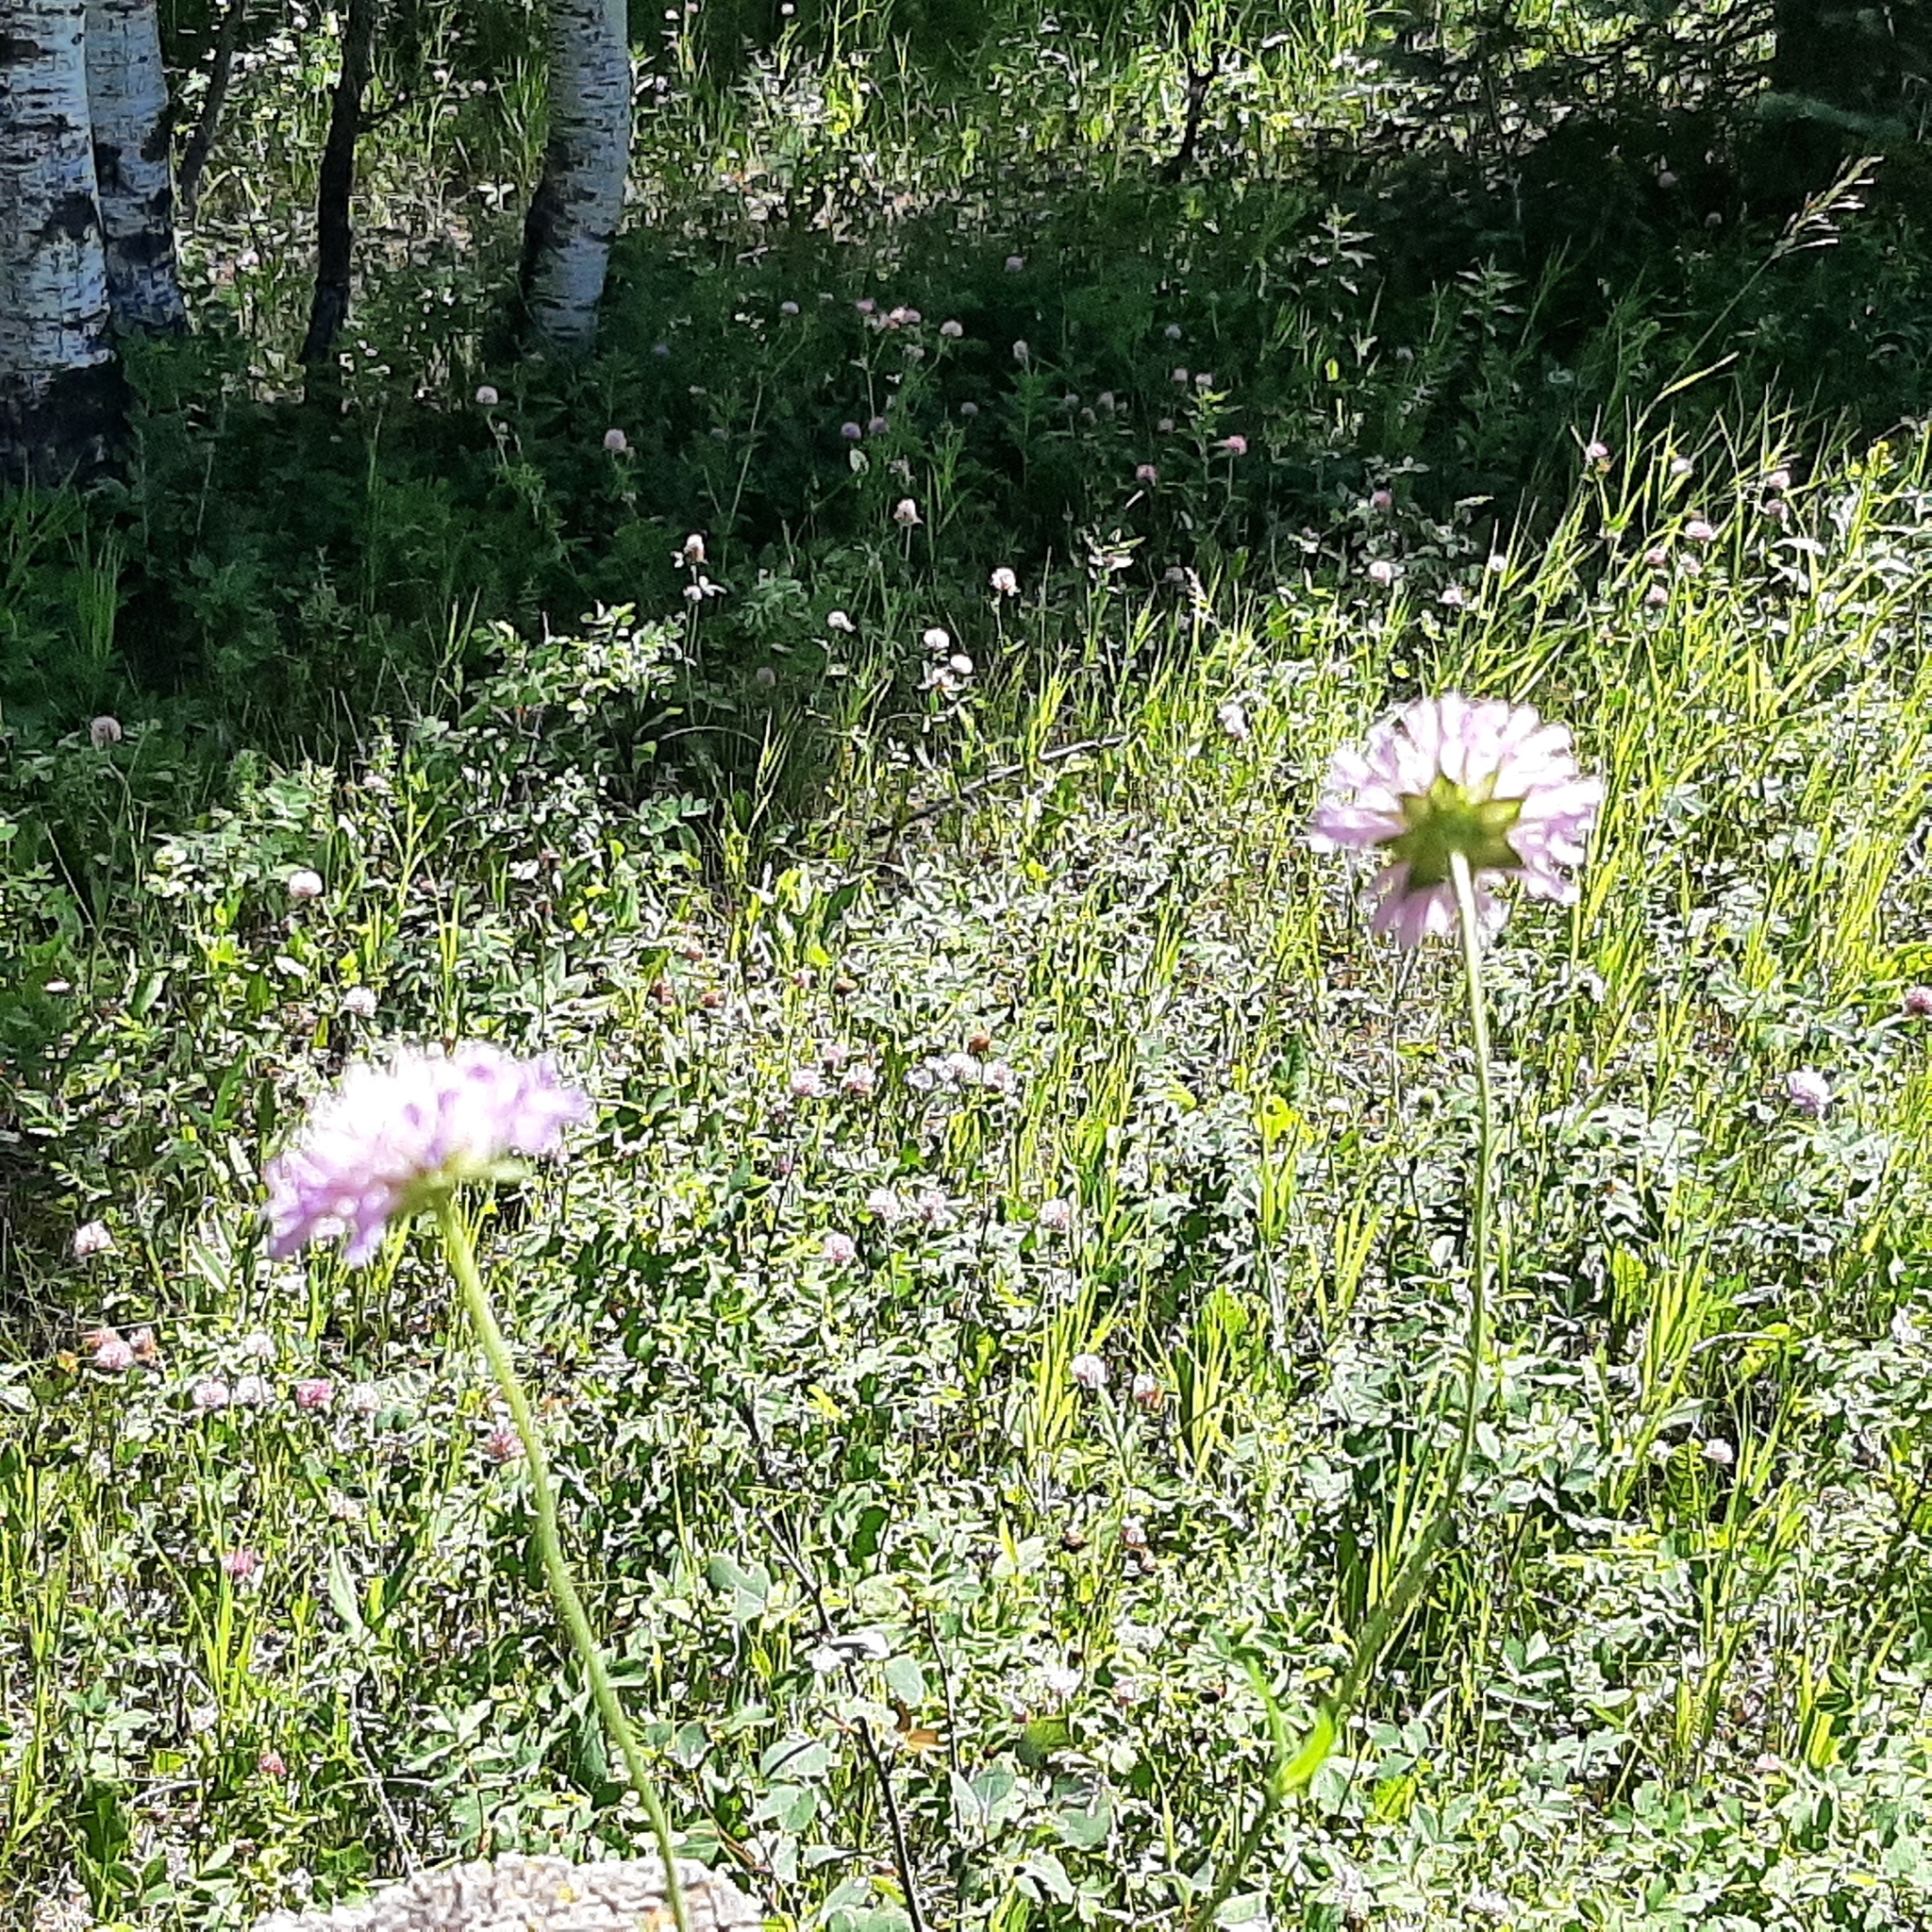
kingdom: Plantae
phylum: Tracheophyta
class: Magnoliopsida
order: Dipsacales
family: Caprifoliaceae
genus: Knautia
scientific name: Knautia arvensis
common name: Field scabiosa
